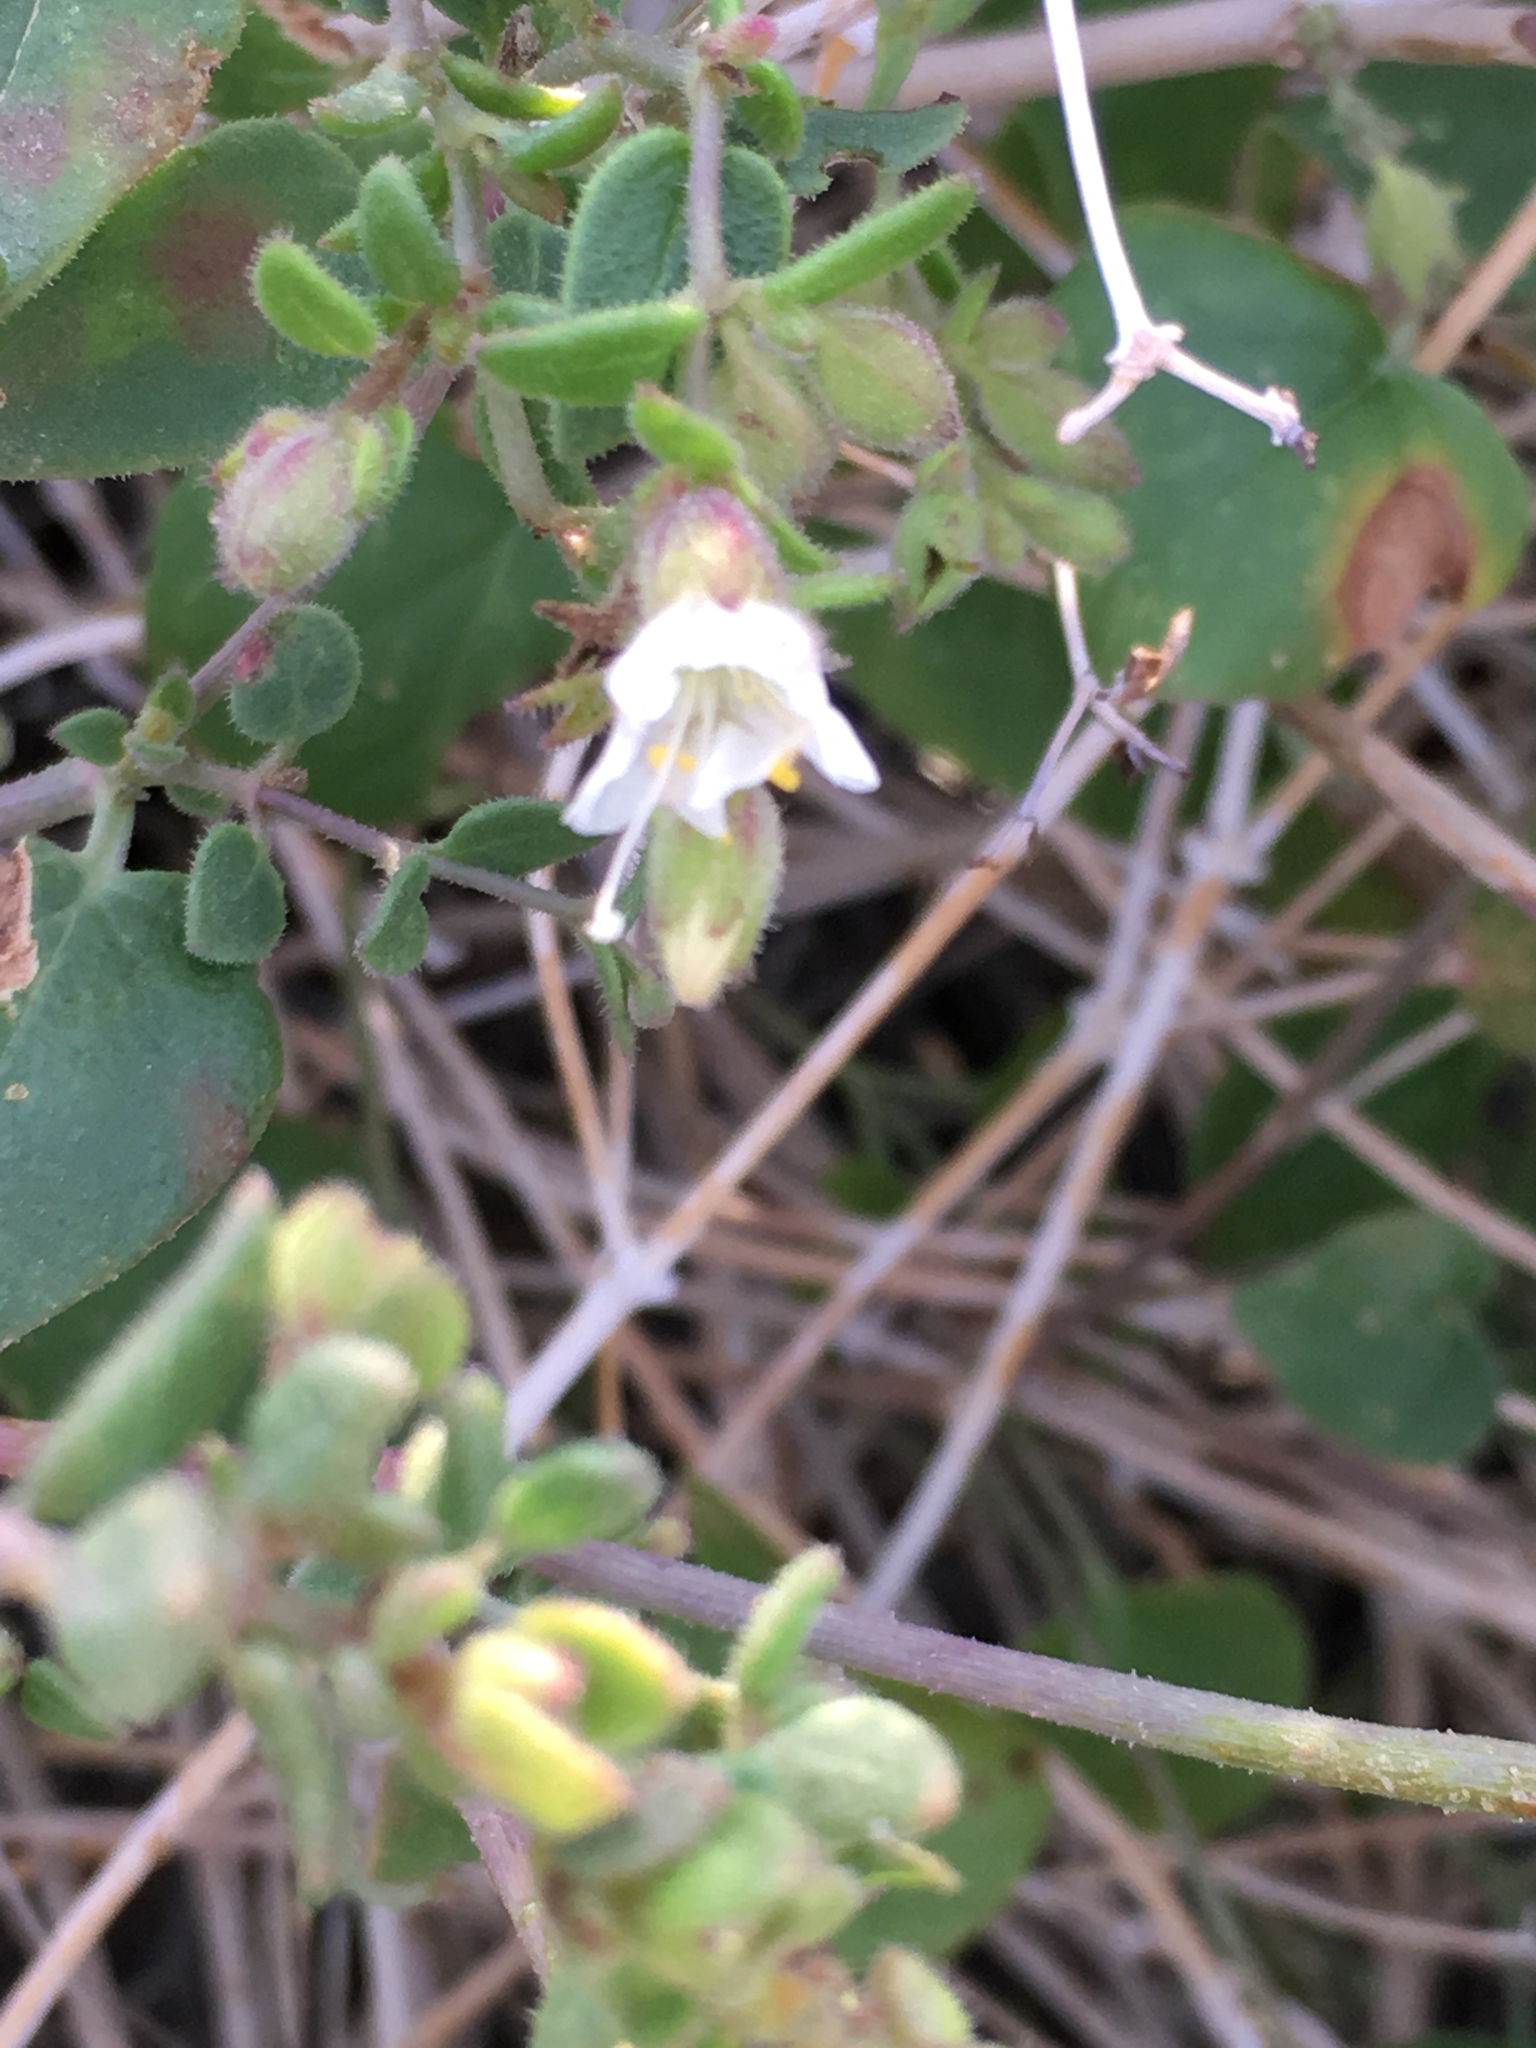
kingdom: Plantae
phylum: Tracheophyta
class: Magnoliopsida
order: Caryophyllales
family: Nyctaginaceae
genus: Mirabilis
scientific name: Mirabilis laevis
